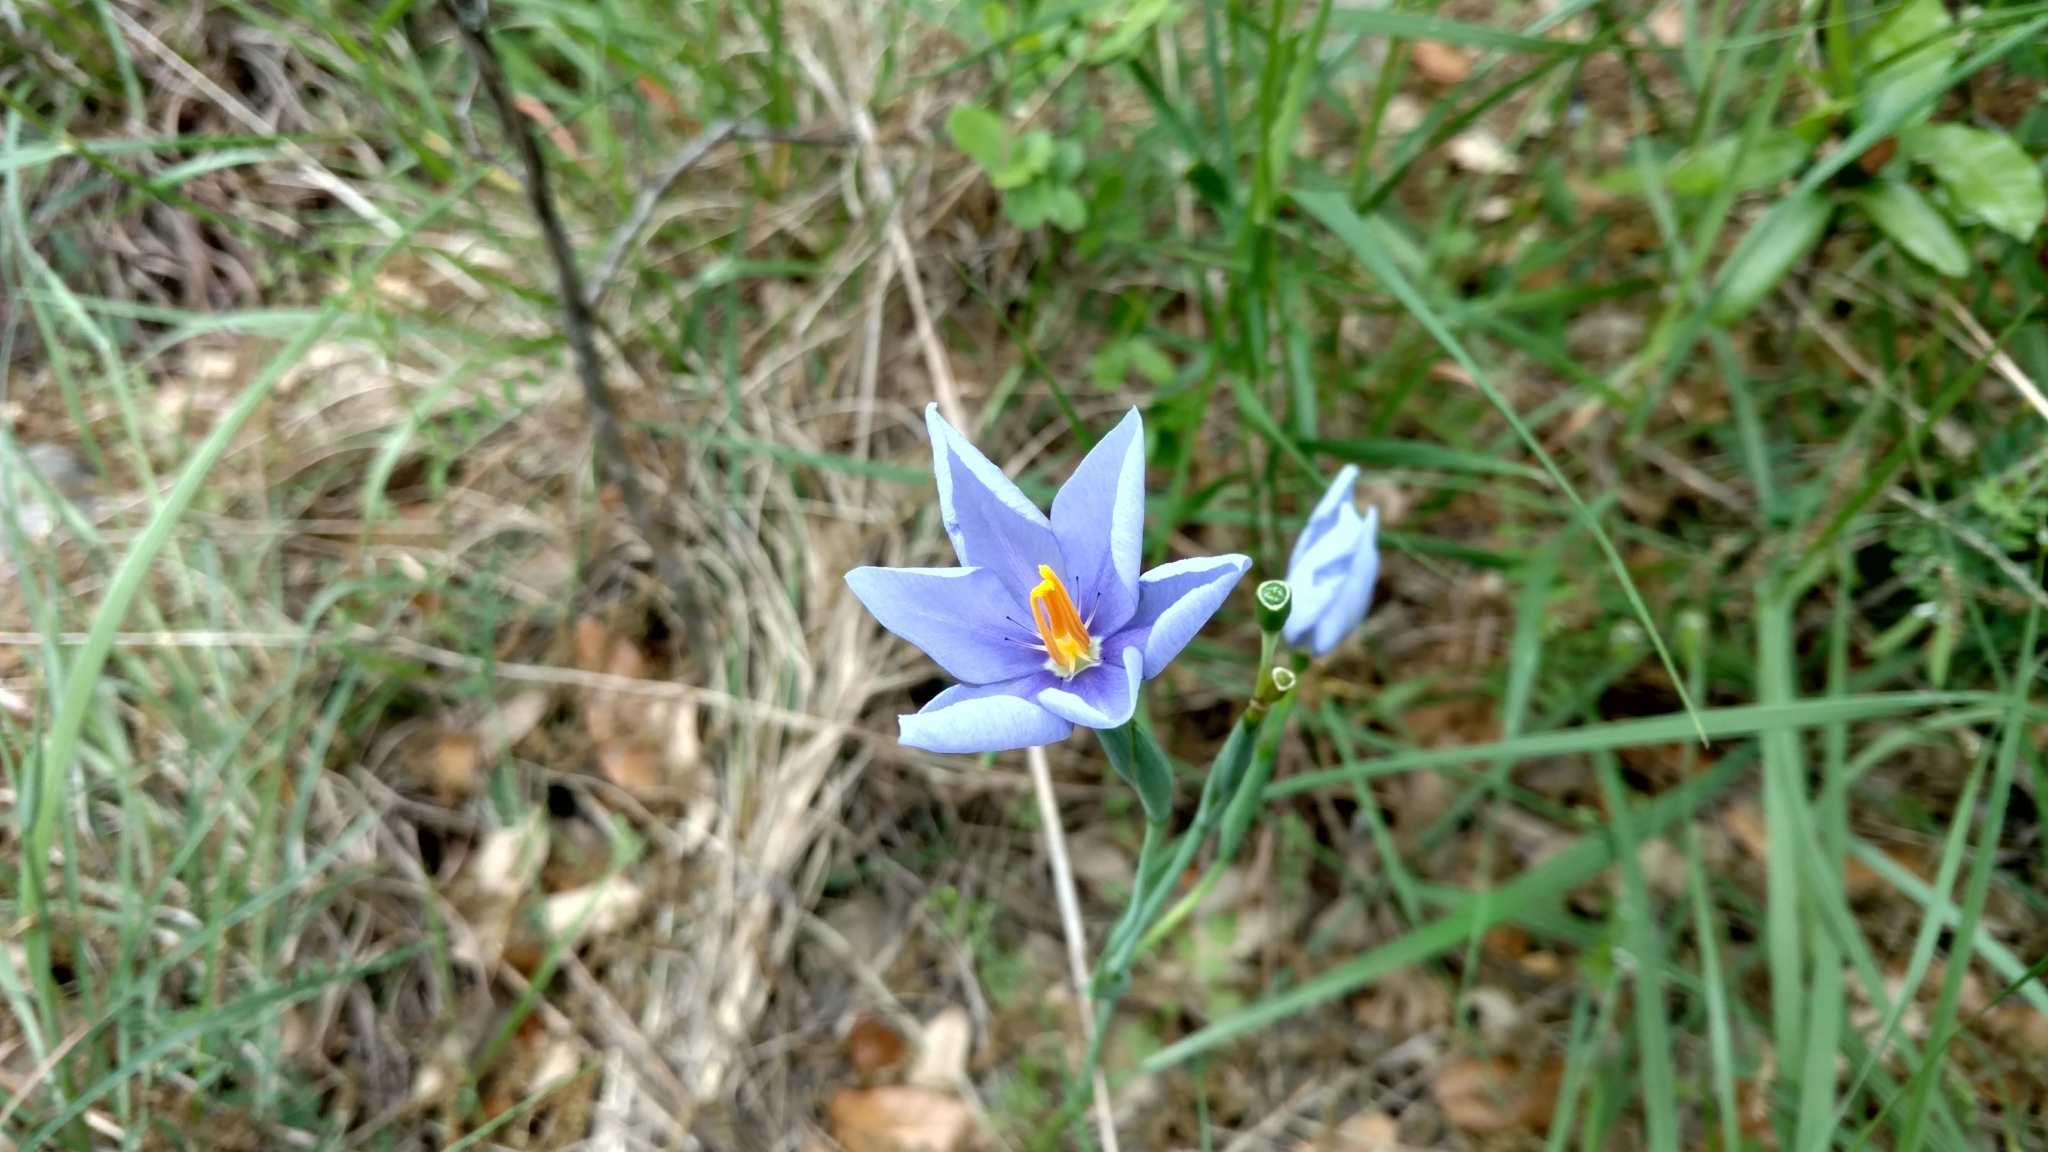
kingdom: Plantae
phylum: Tracheophyta
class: Liliopsida
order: Asparagales
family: Iridaceae
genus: Nemastylis
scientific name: Nemastylis geminiflora
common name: Prairie celestial
